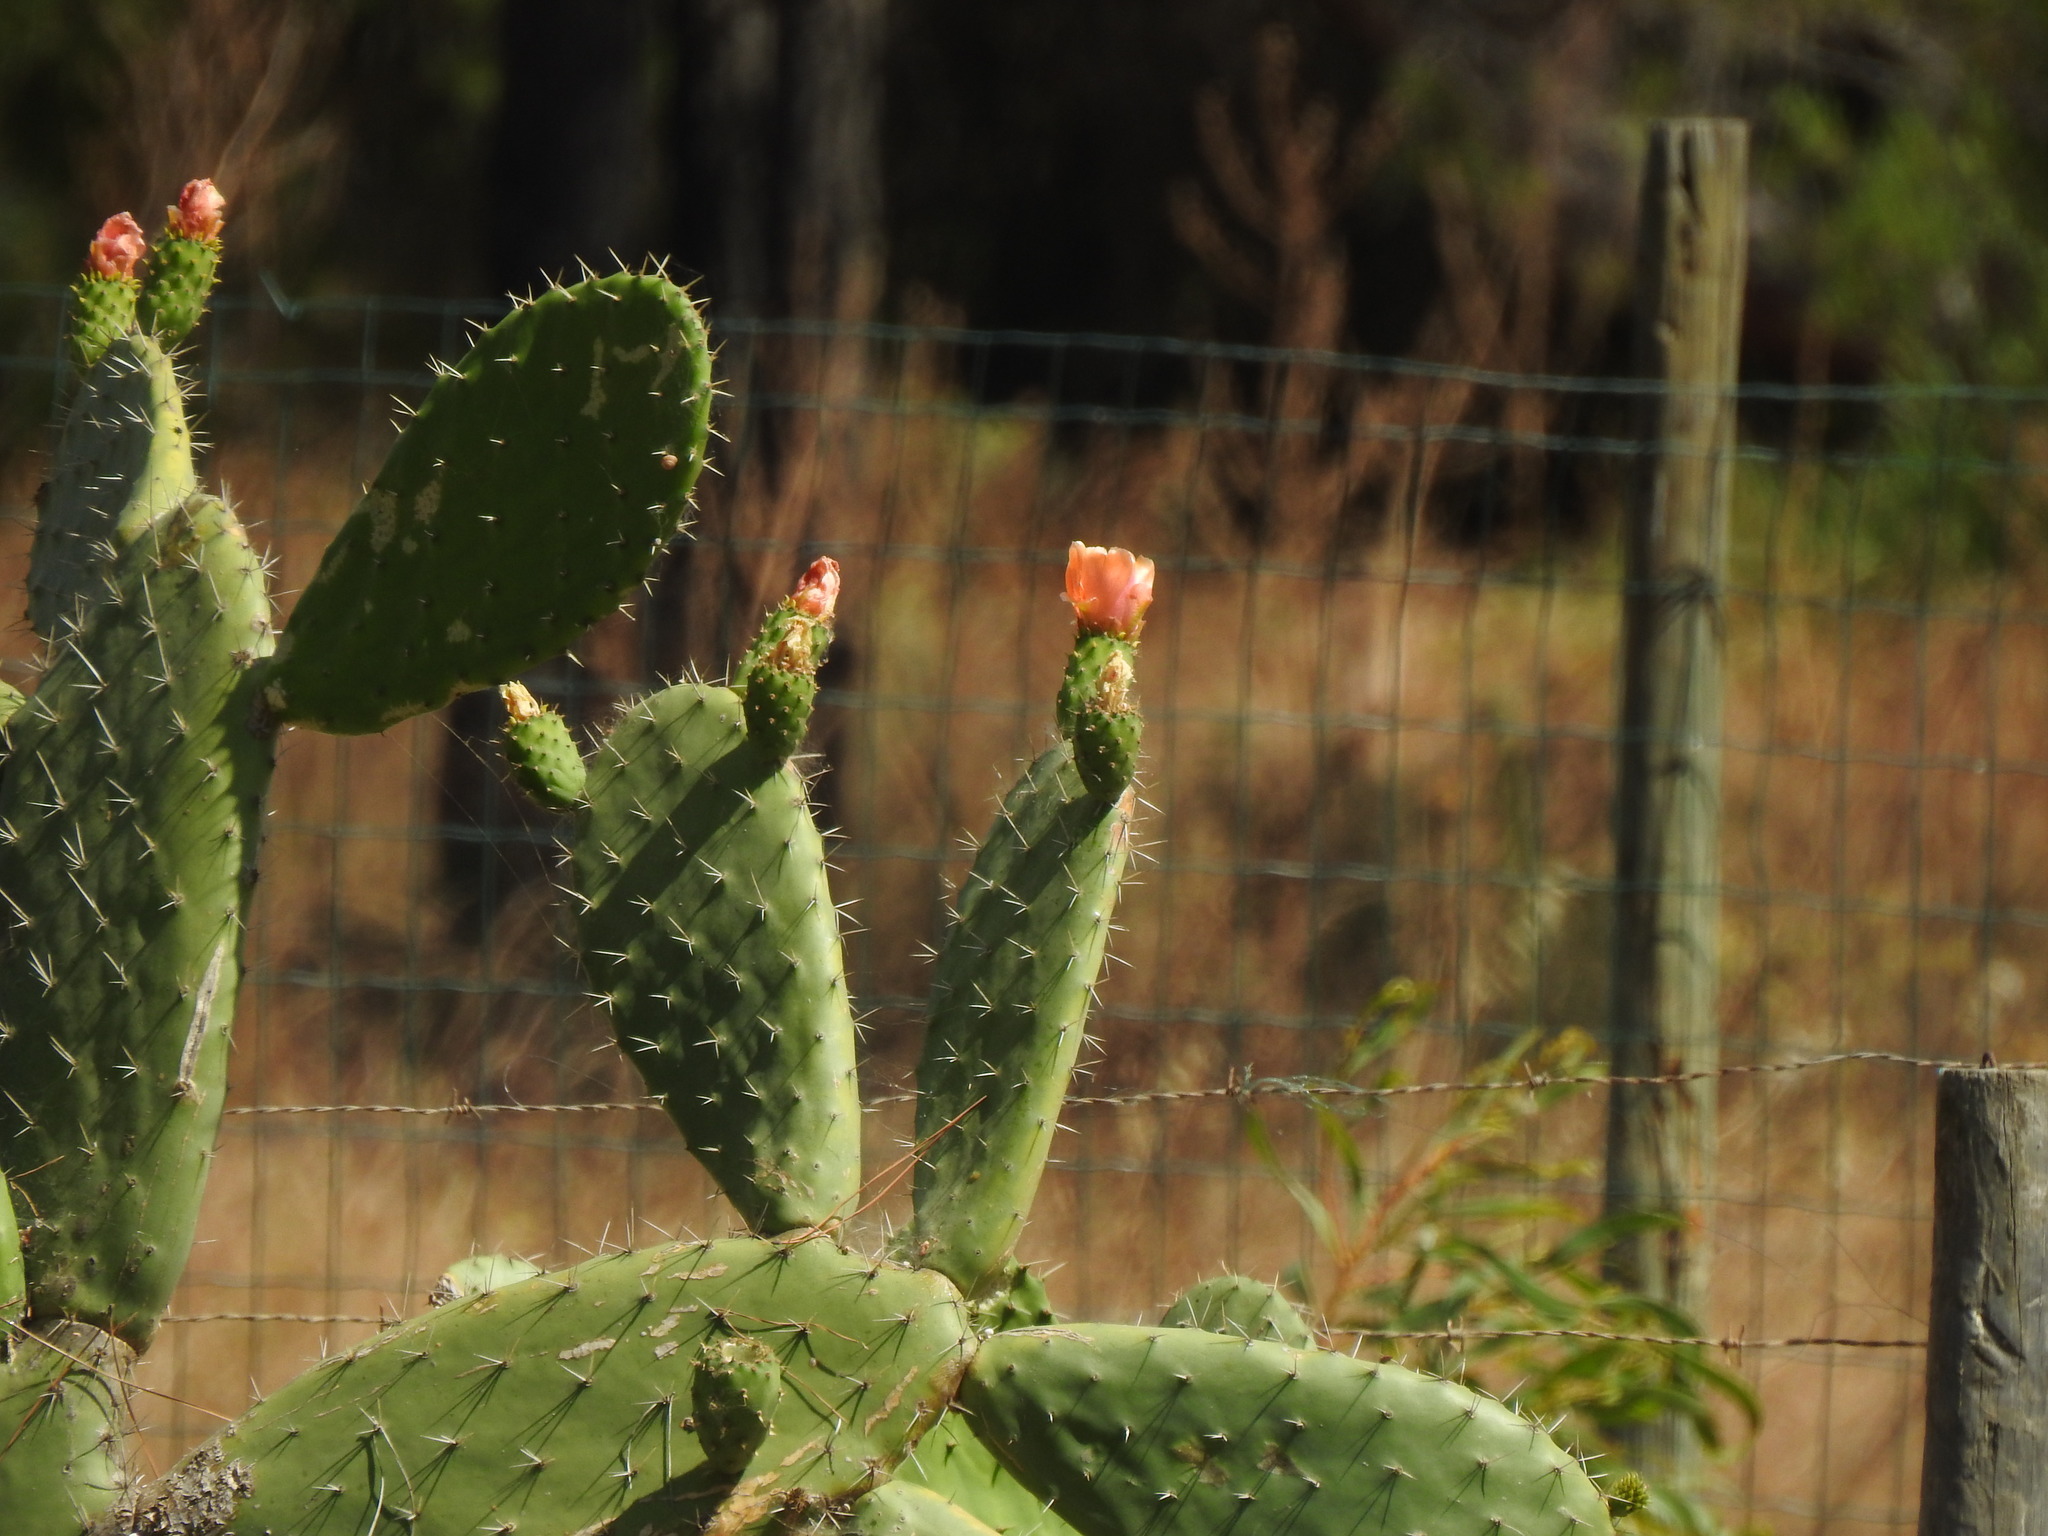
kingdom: Plantae
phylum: Tracheophyta
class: Magnoliopsida
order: Caryophyllales
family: Cactaceae
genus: Opuntia
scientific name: Opuntia ficus-indica
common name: Barbary fig
